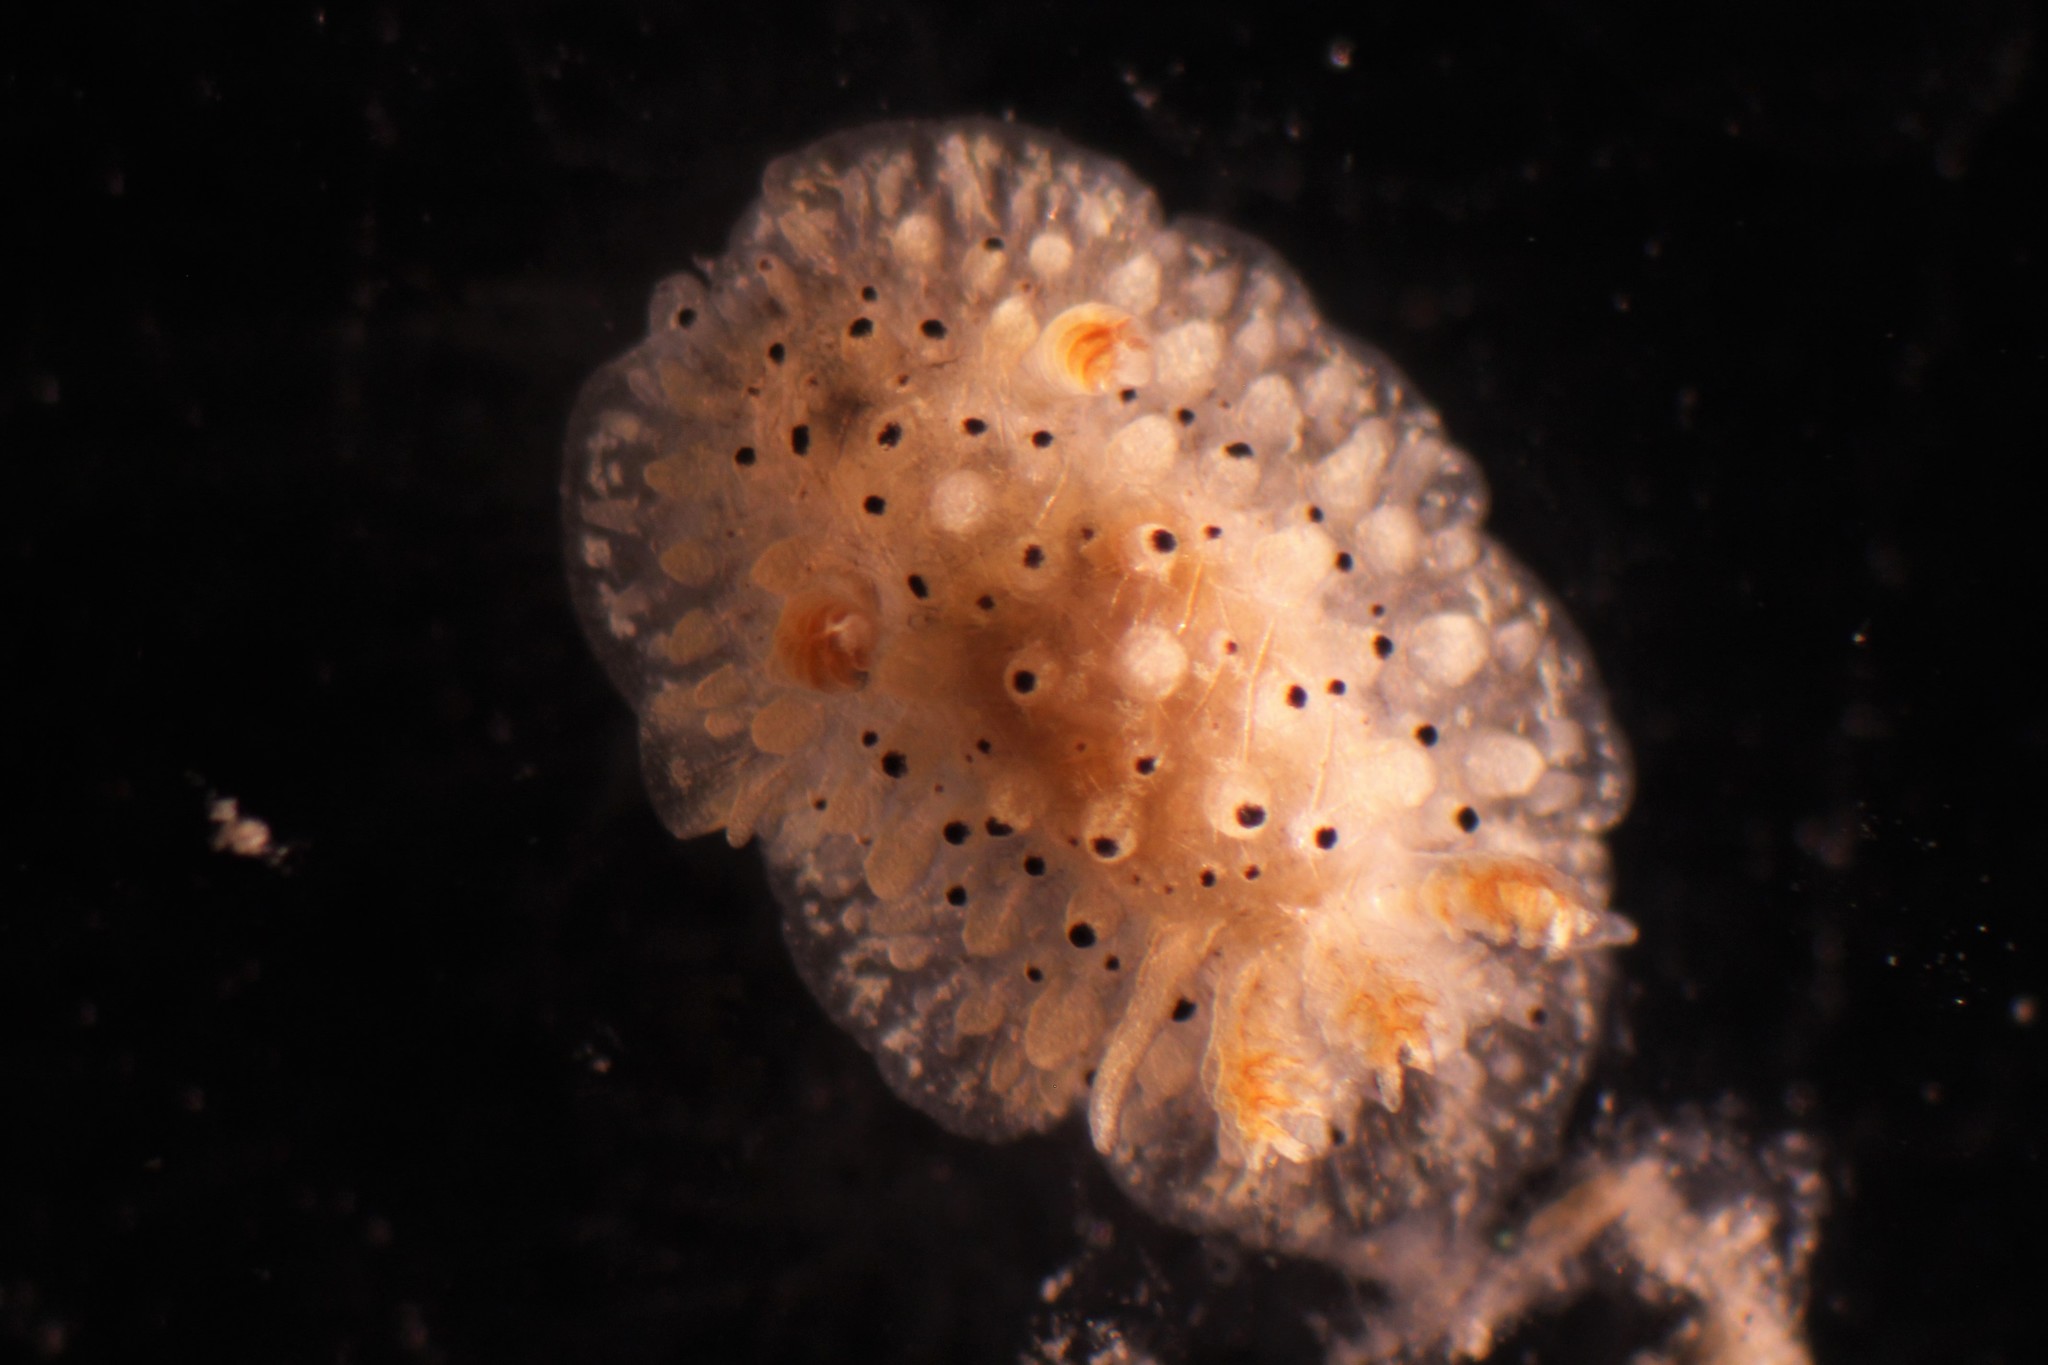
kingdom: Animalia
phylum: Mollusca
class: Gastropoda
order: Nudibranchia
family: Onchidorididae
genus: Acanthodoris
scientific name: Acanthodoris rhodoceras
